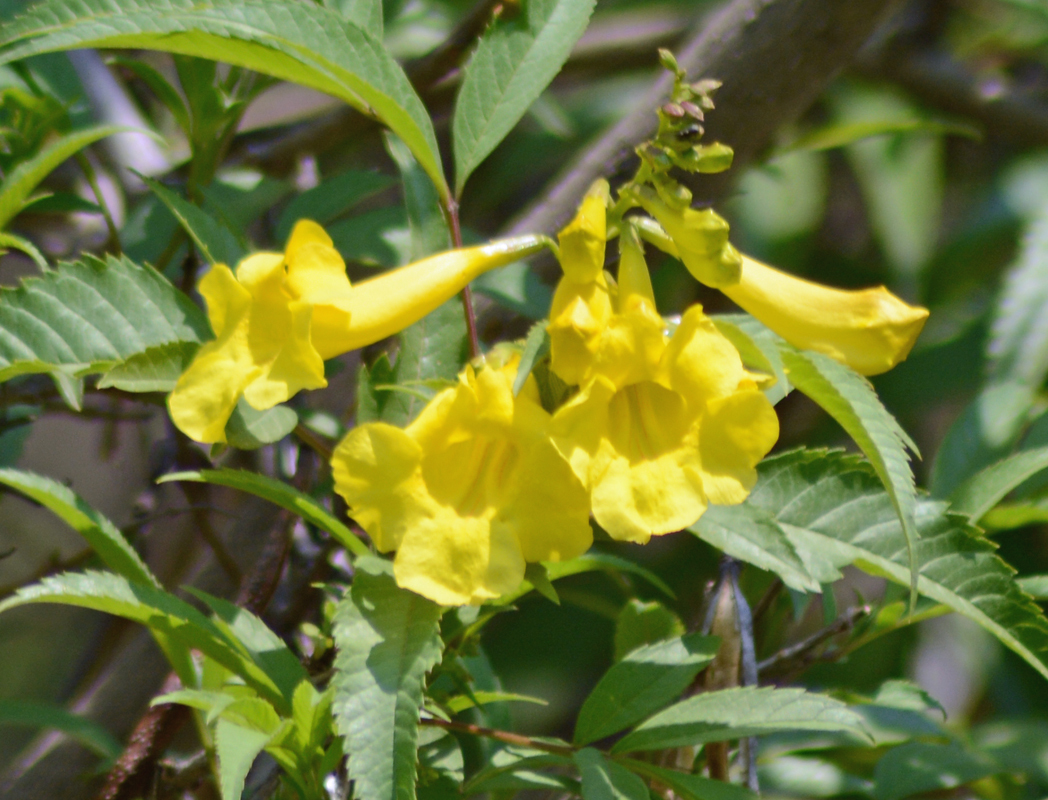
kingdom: Plantae
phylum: Tracheophyta
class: Magnoliopsida
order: Lamiales
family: Bignoniaceae
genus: Tecoma
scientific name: Tecoma stans
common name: Yellow trumpetbush
